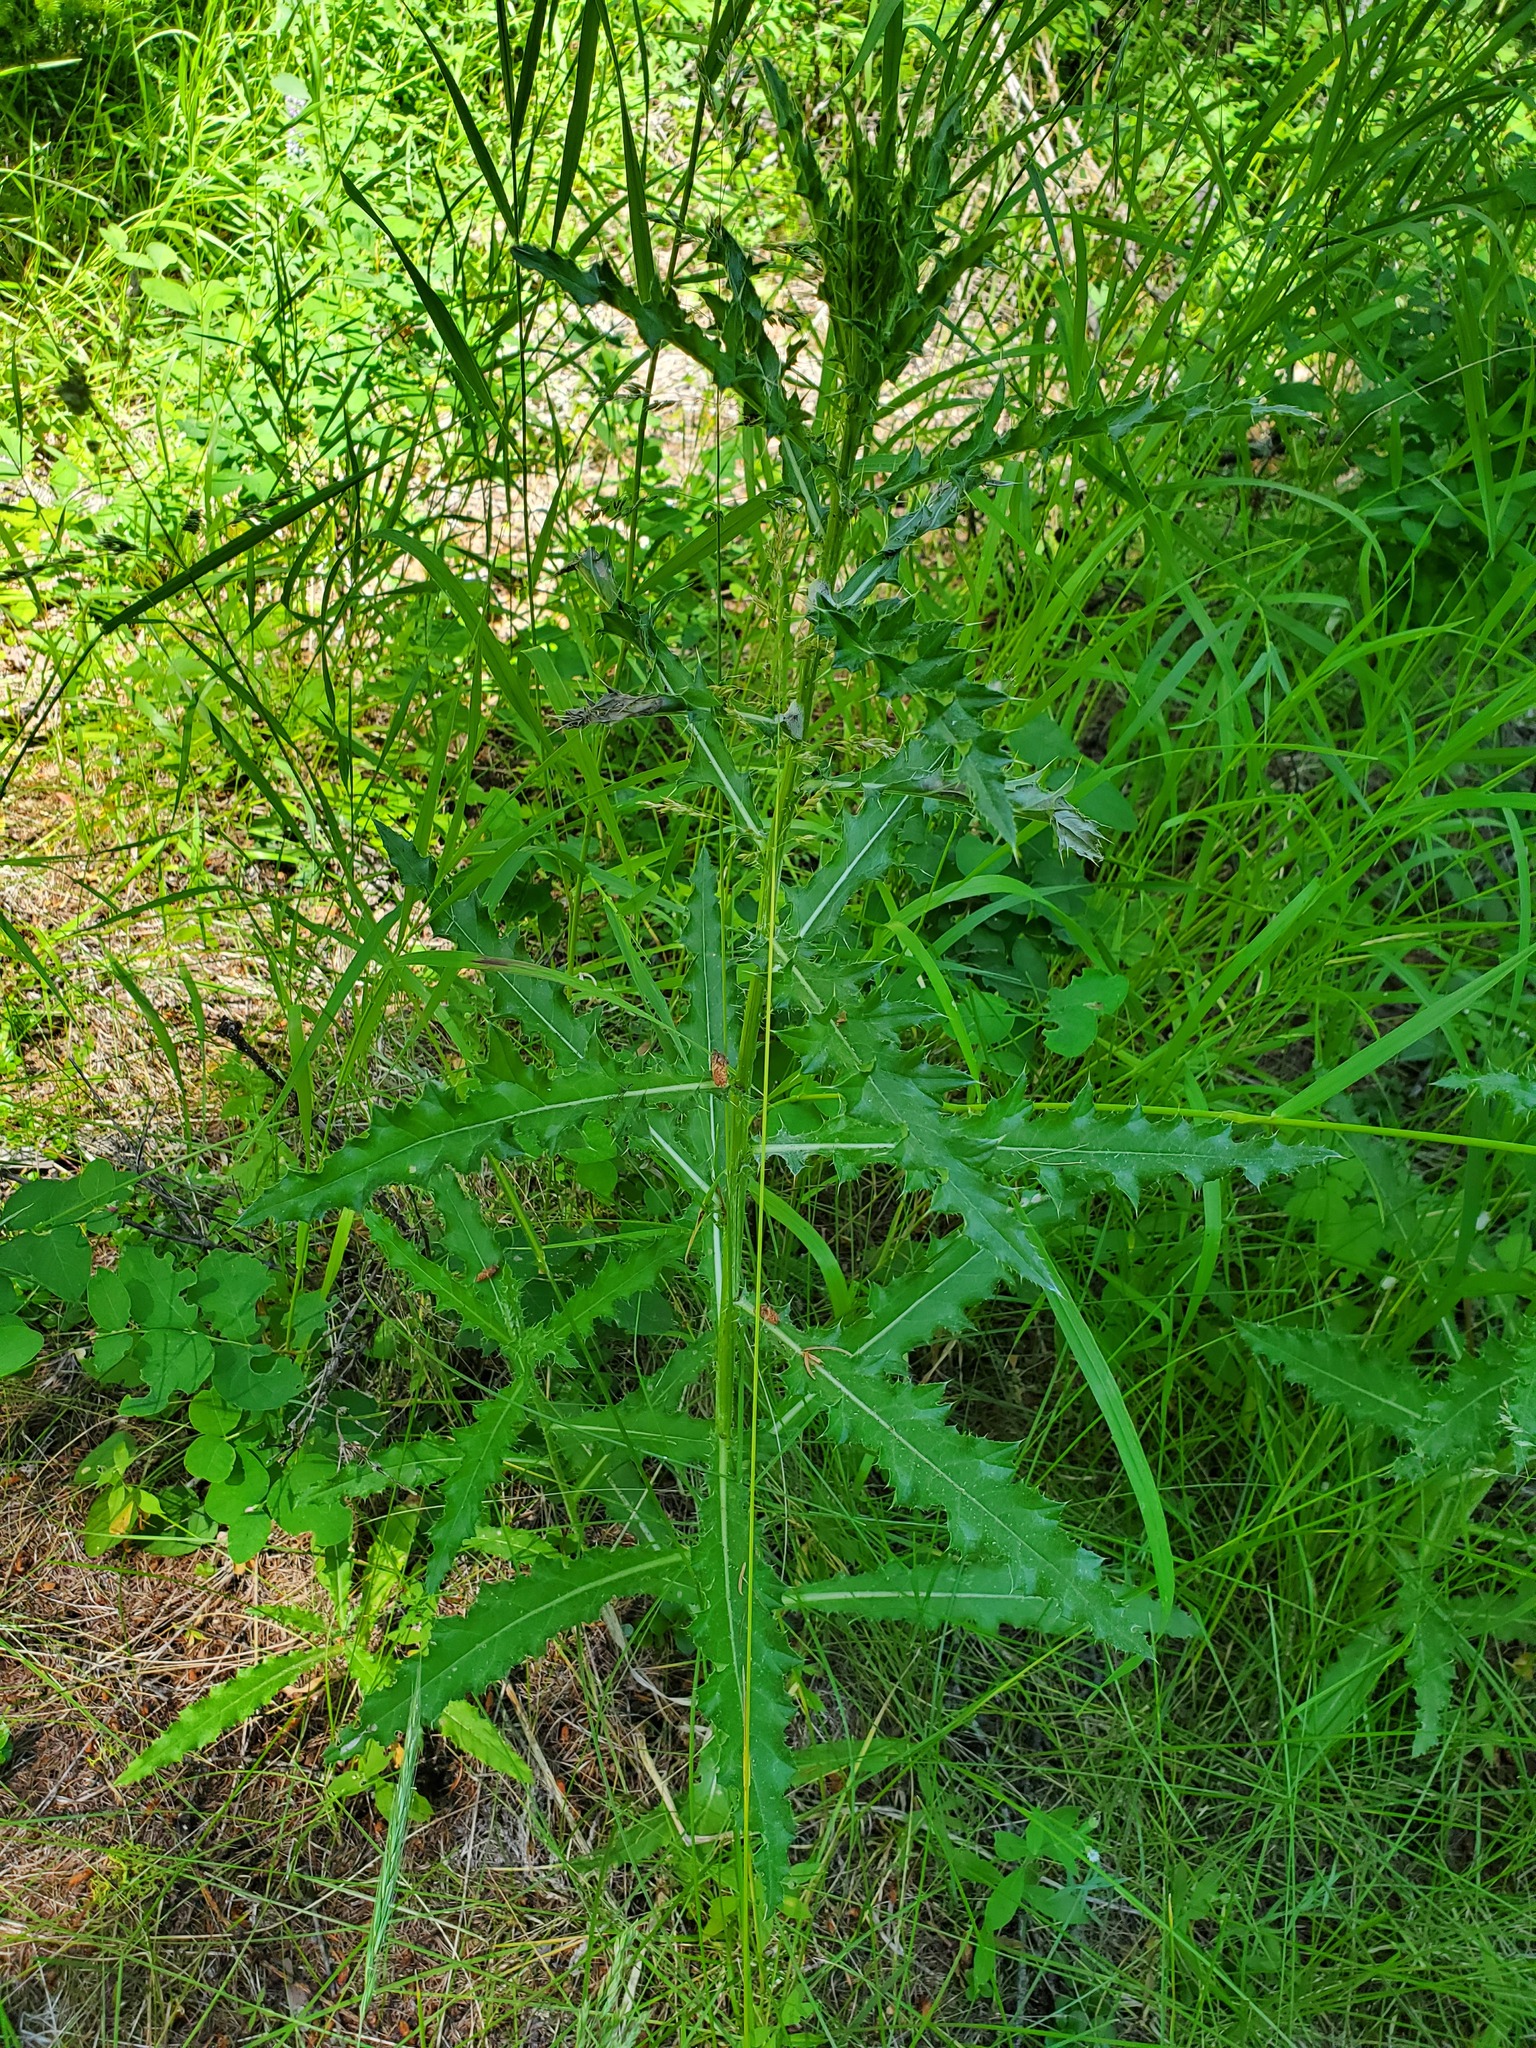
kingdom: Plantae
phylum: Tracheophyta
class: Magnoliopsida
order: Asterales
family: Asteraceae
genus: Cirsium
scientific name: Cirsium arvense
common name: Creeping thistle
